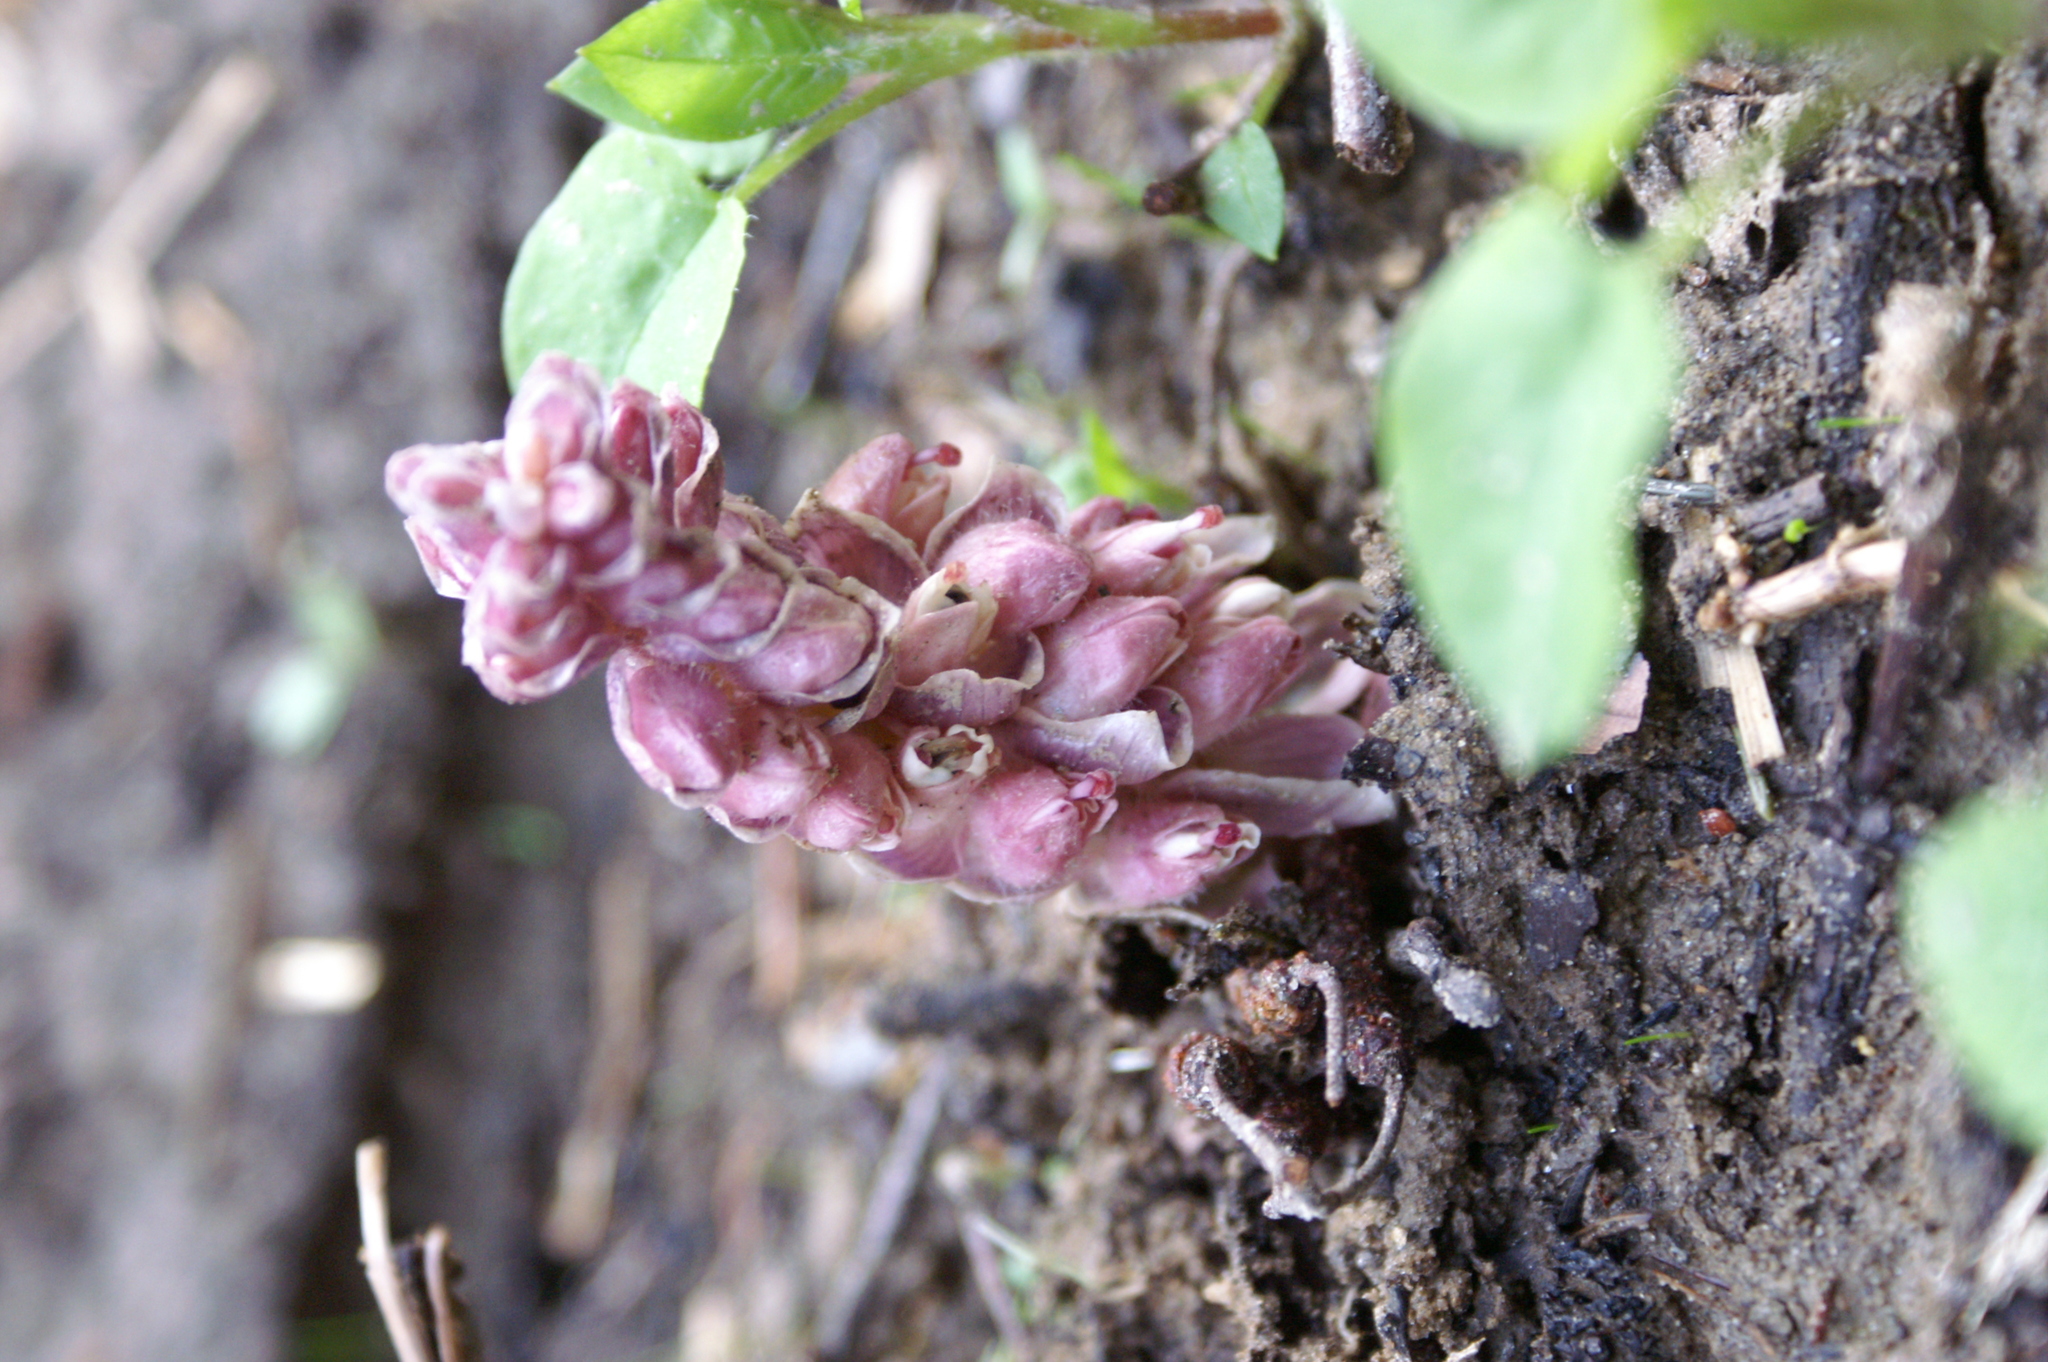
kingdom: Plantae
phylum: Tracheophyta
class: Magnoliopsida
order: Lamiales
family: Orobanchaceae
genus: Lathraea
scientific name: Lathraea squamaria
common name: Toothwort
